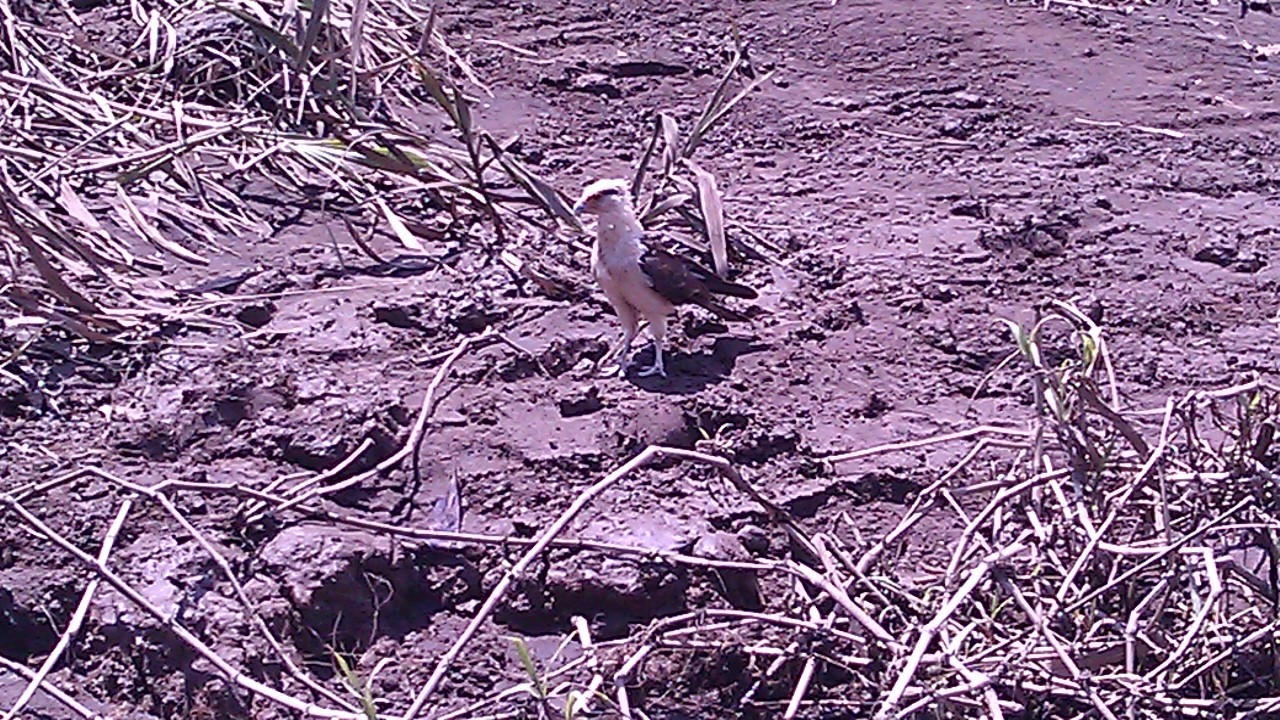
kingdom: Animalia
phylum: Chordata
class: Aves
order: Falconiformes
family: Falconidae
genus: Daptrius
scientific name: Daptrius
